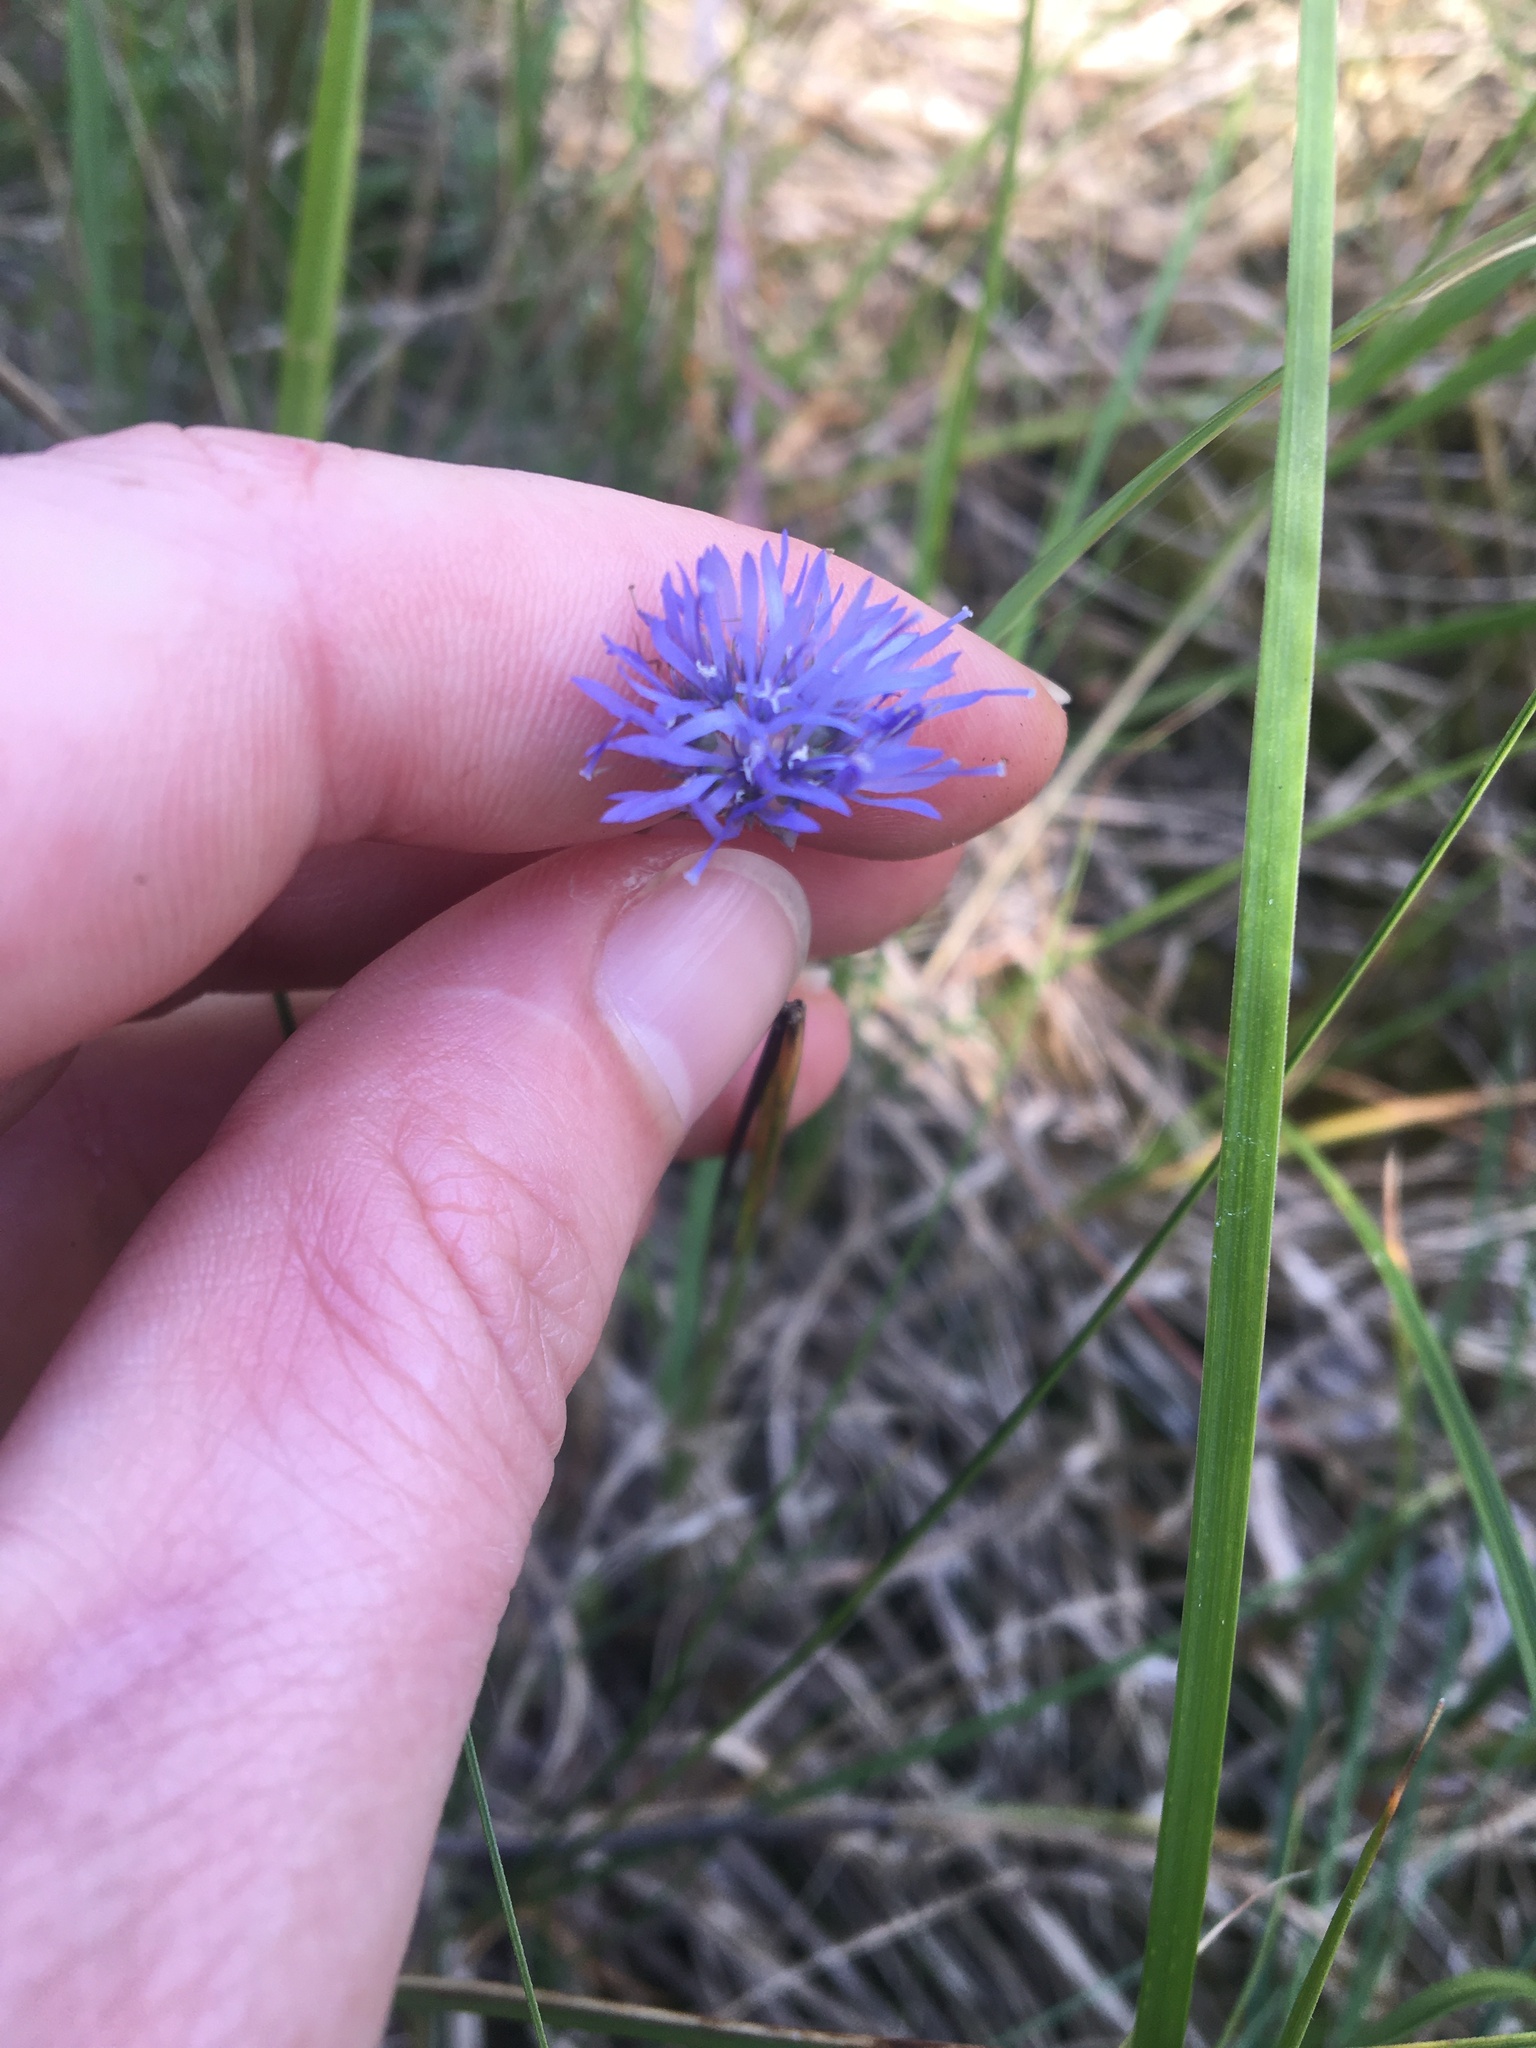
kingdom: Plantae
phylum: Tracheophyta
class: Magnoliopsida
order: Asterales
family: Campanulaceae
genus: Jasione
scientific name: Jasione montana
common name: Sheep's-bit
